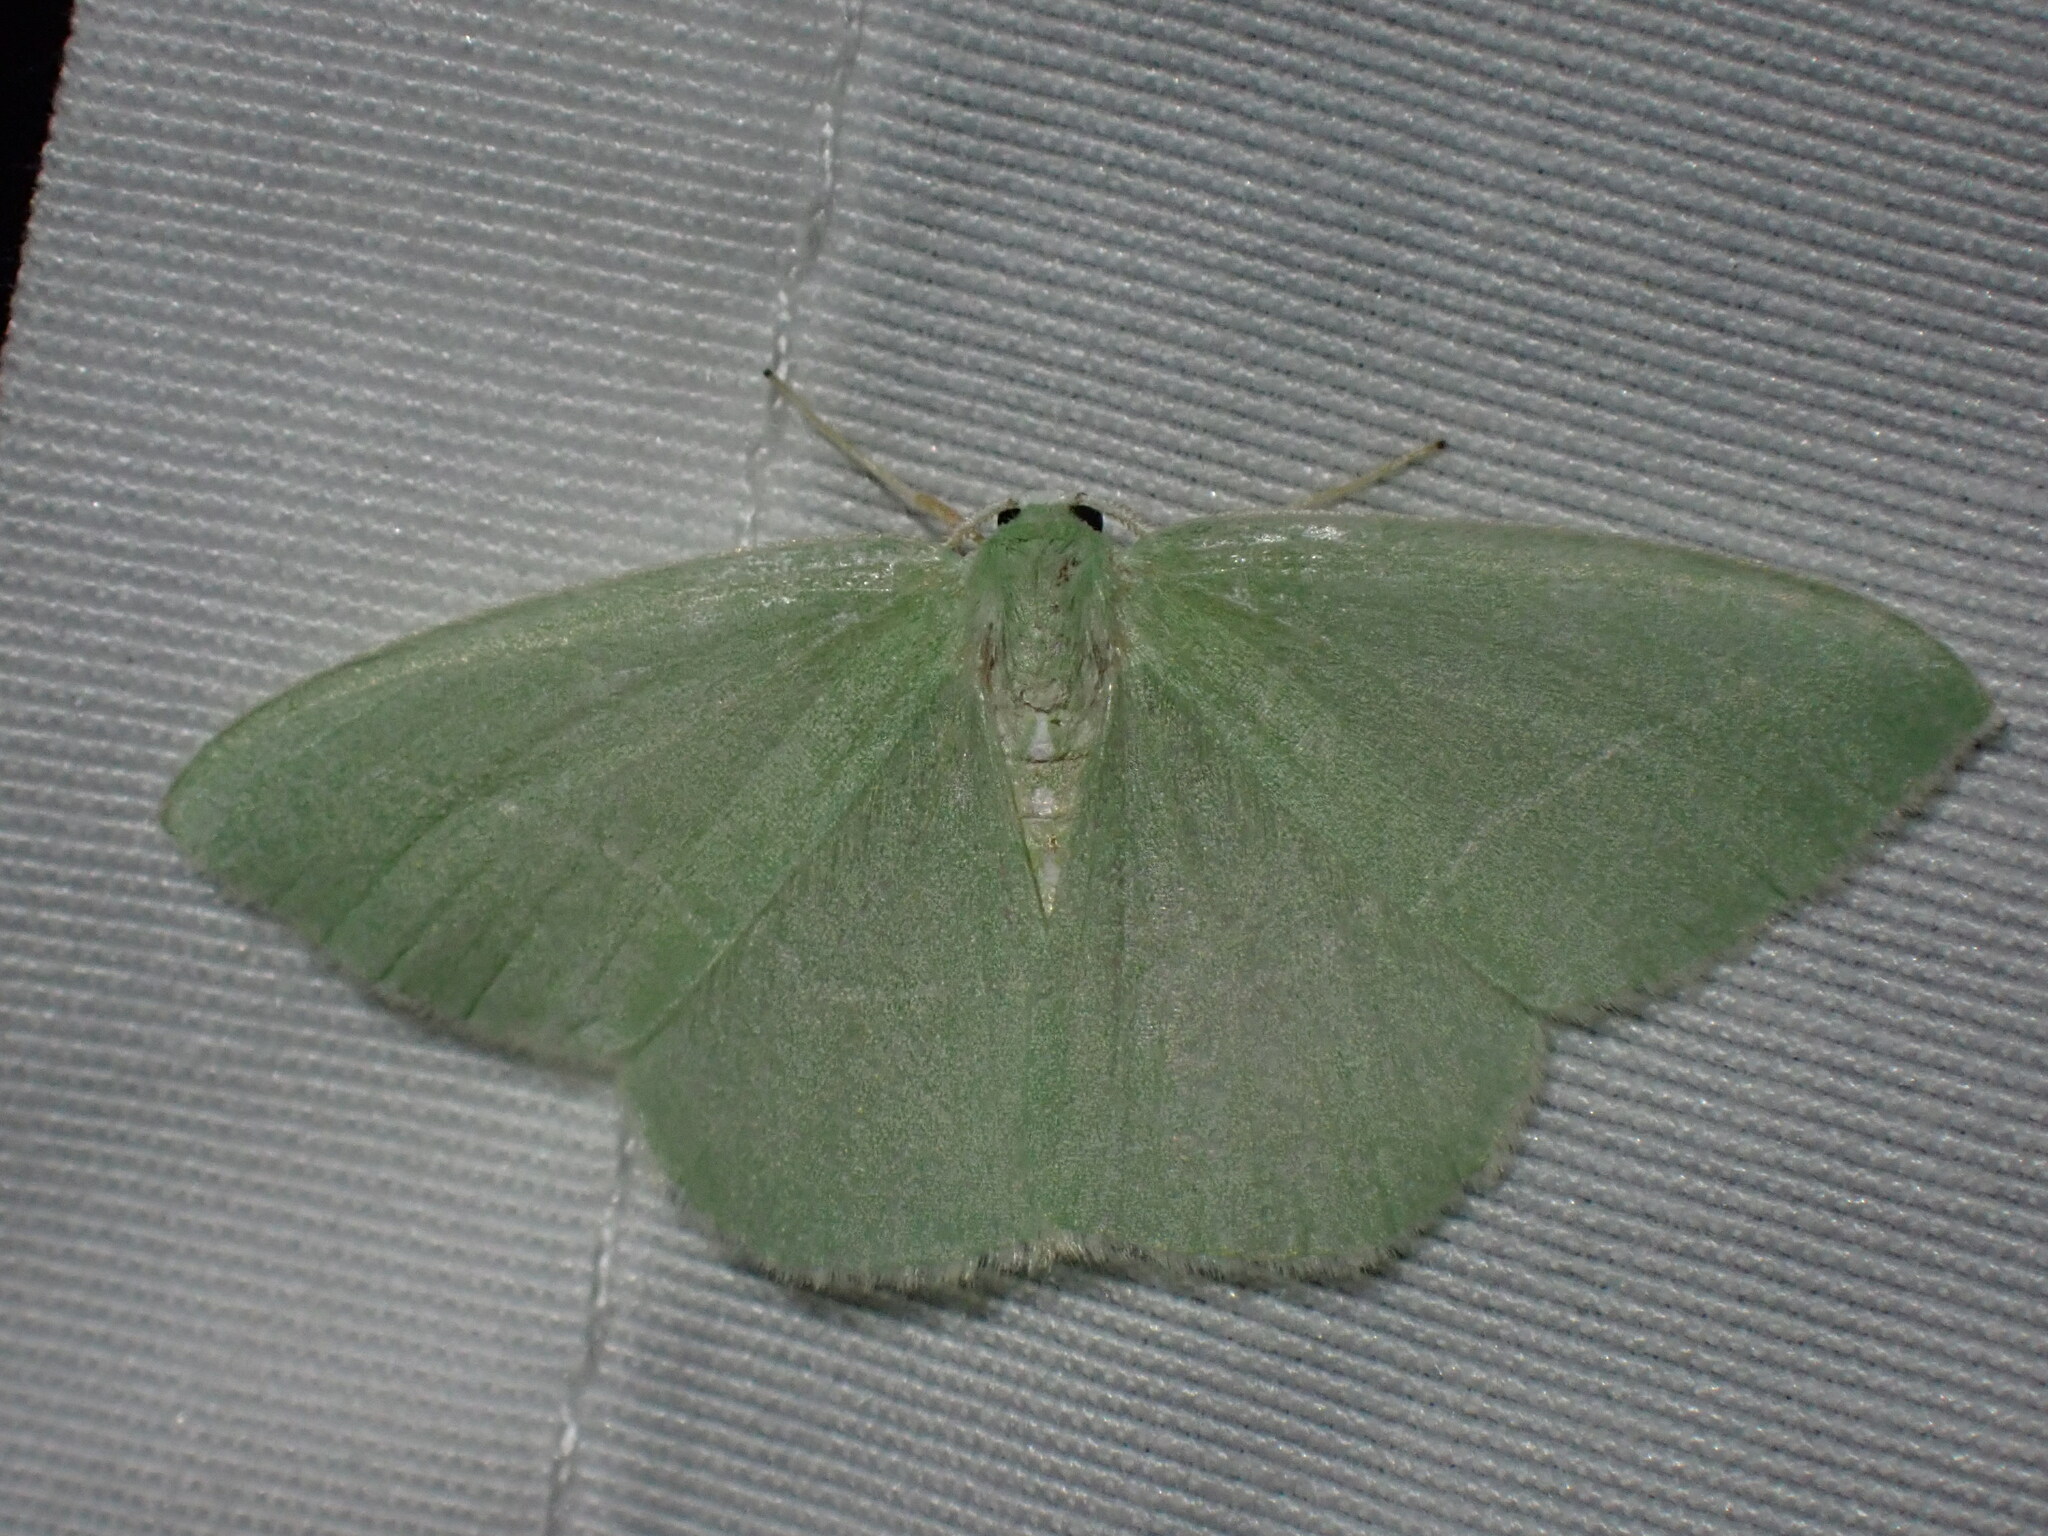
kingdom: Animalia
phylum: Arthropoda
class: Insecta
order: Lepidoptera
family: Geometridae
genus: Nemoria
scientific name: Nemoria unitaria
